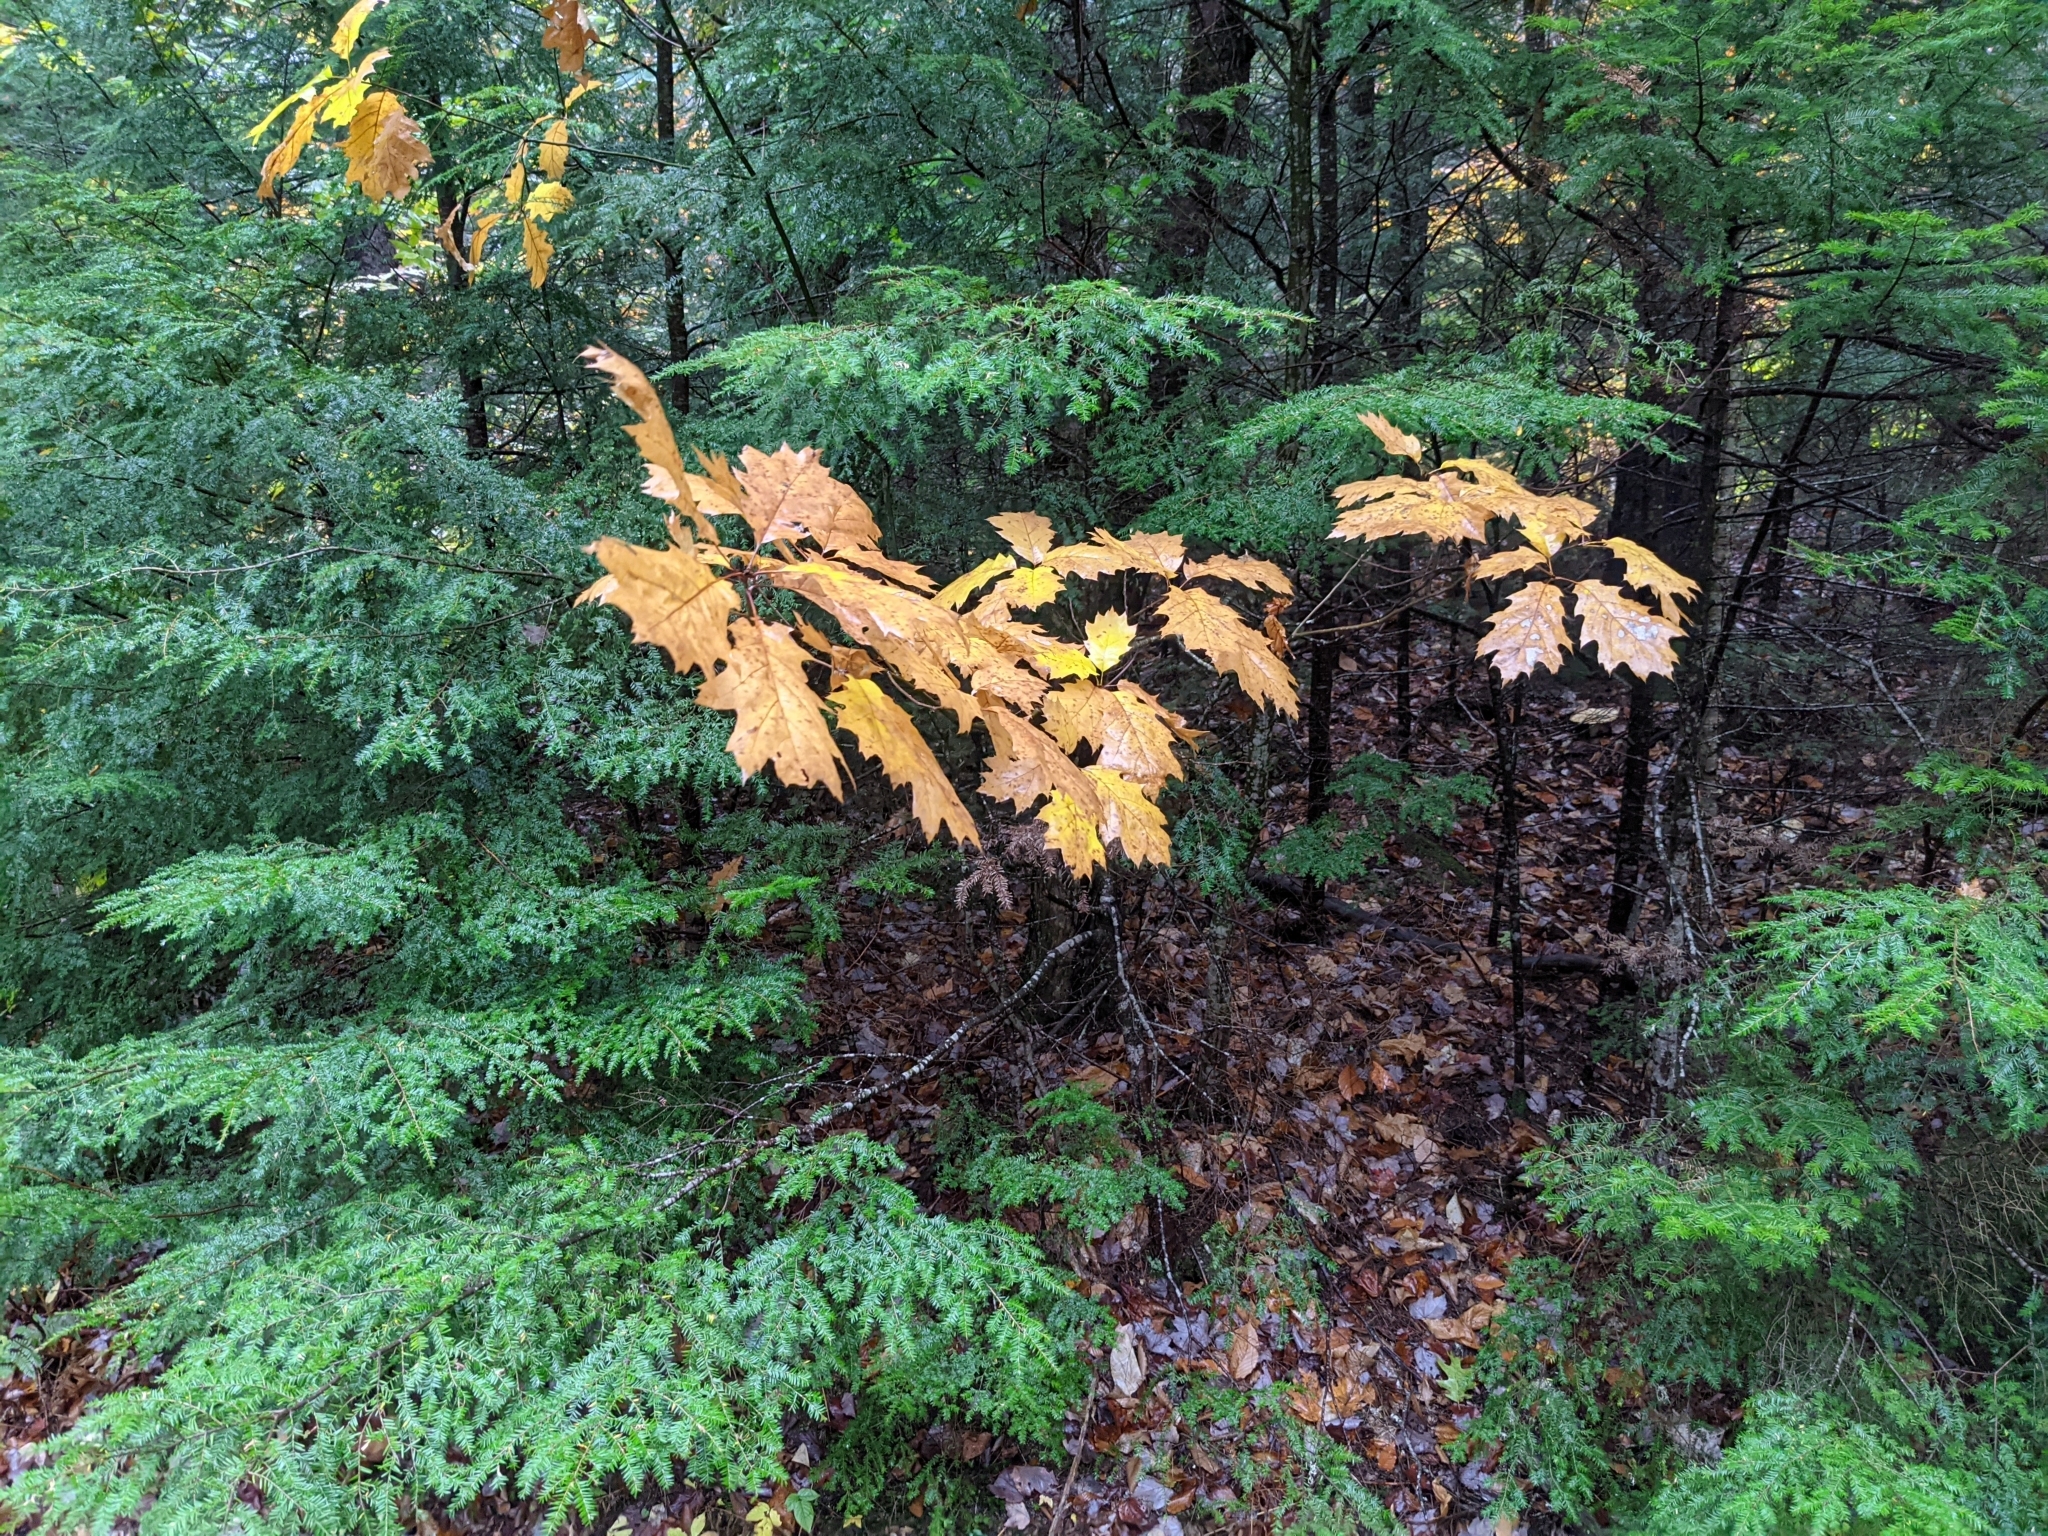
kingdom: Plantae
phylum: Tracheophyta
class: Magnoliopsida
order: Fagales
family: Fagaceae
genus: Quercus
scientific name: Quercus rubra
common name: Red oak
